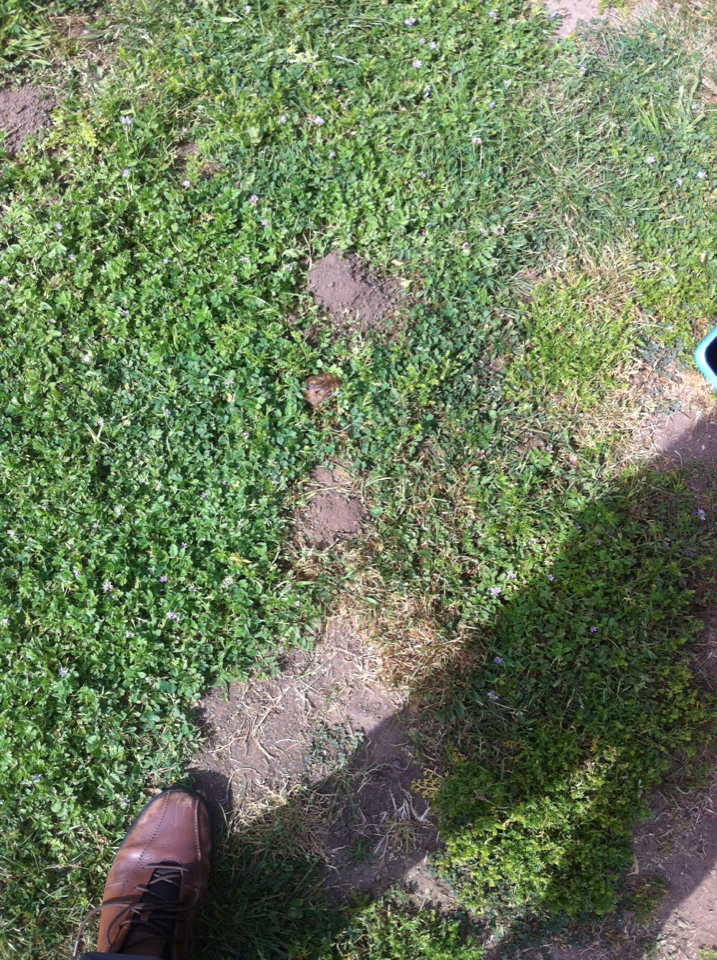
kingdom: Animalia
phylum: Chordata
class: Mammalia
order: Rodentia
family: Geomyidae
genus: Thomomys
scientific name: Thomomys bottae
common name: Botta's pocket gopher
